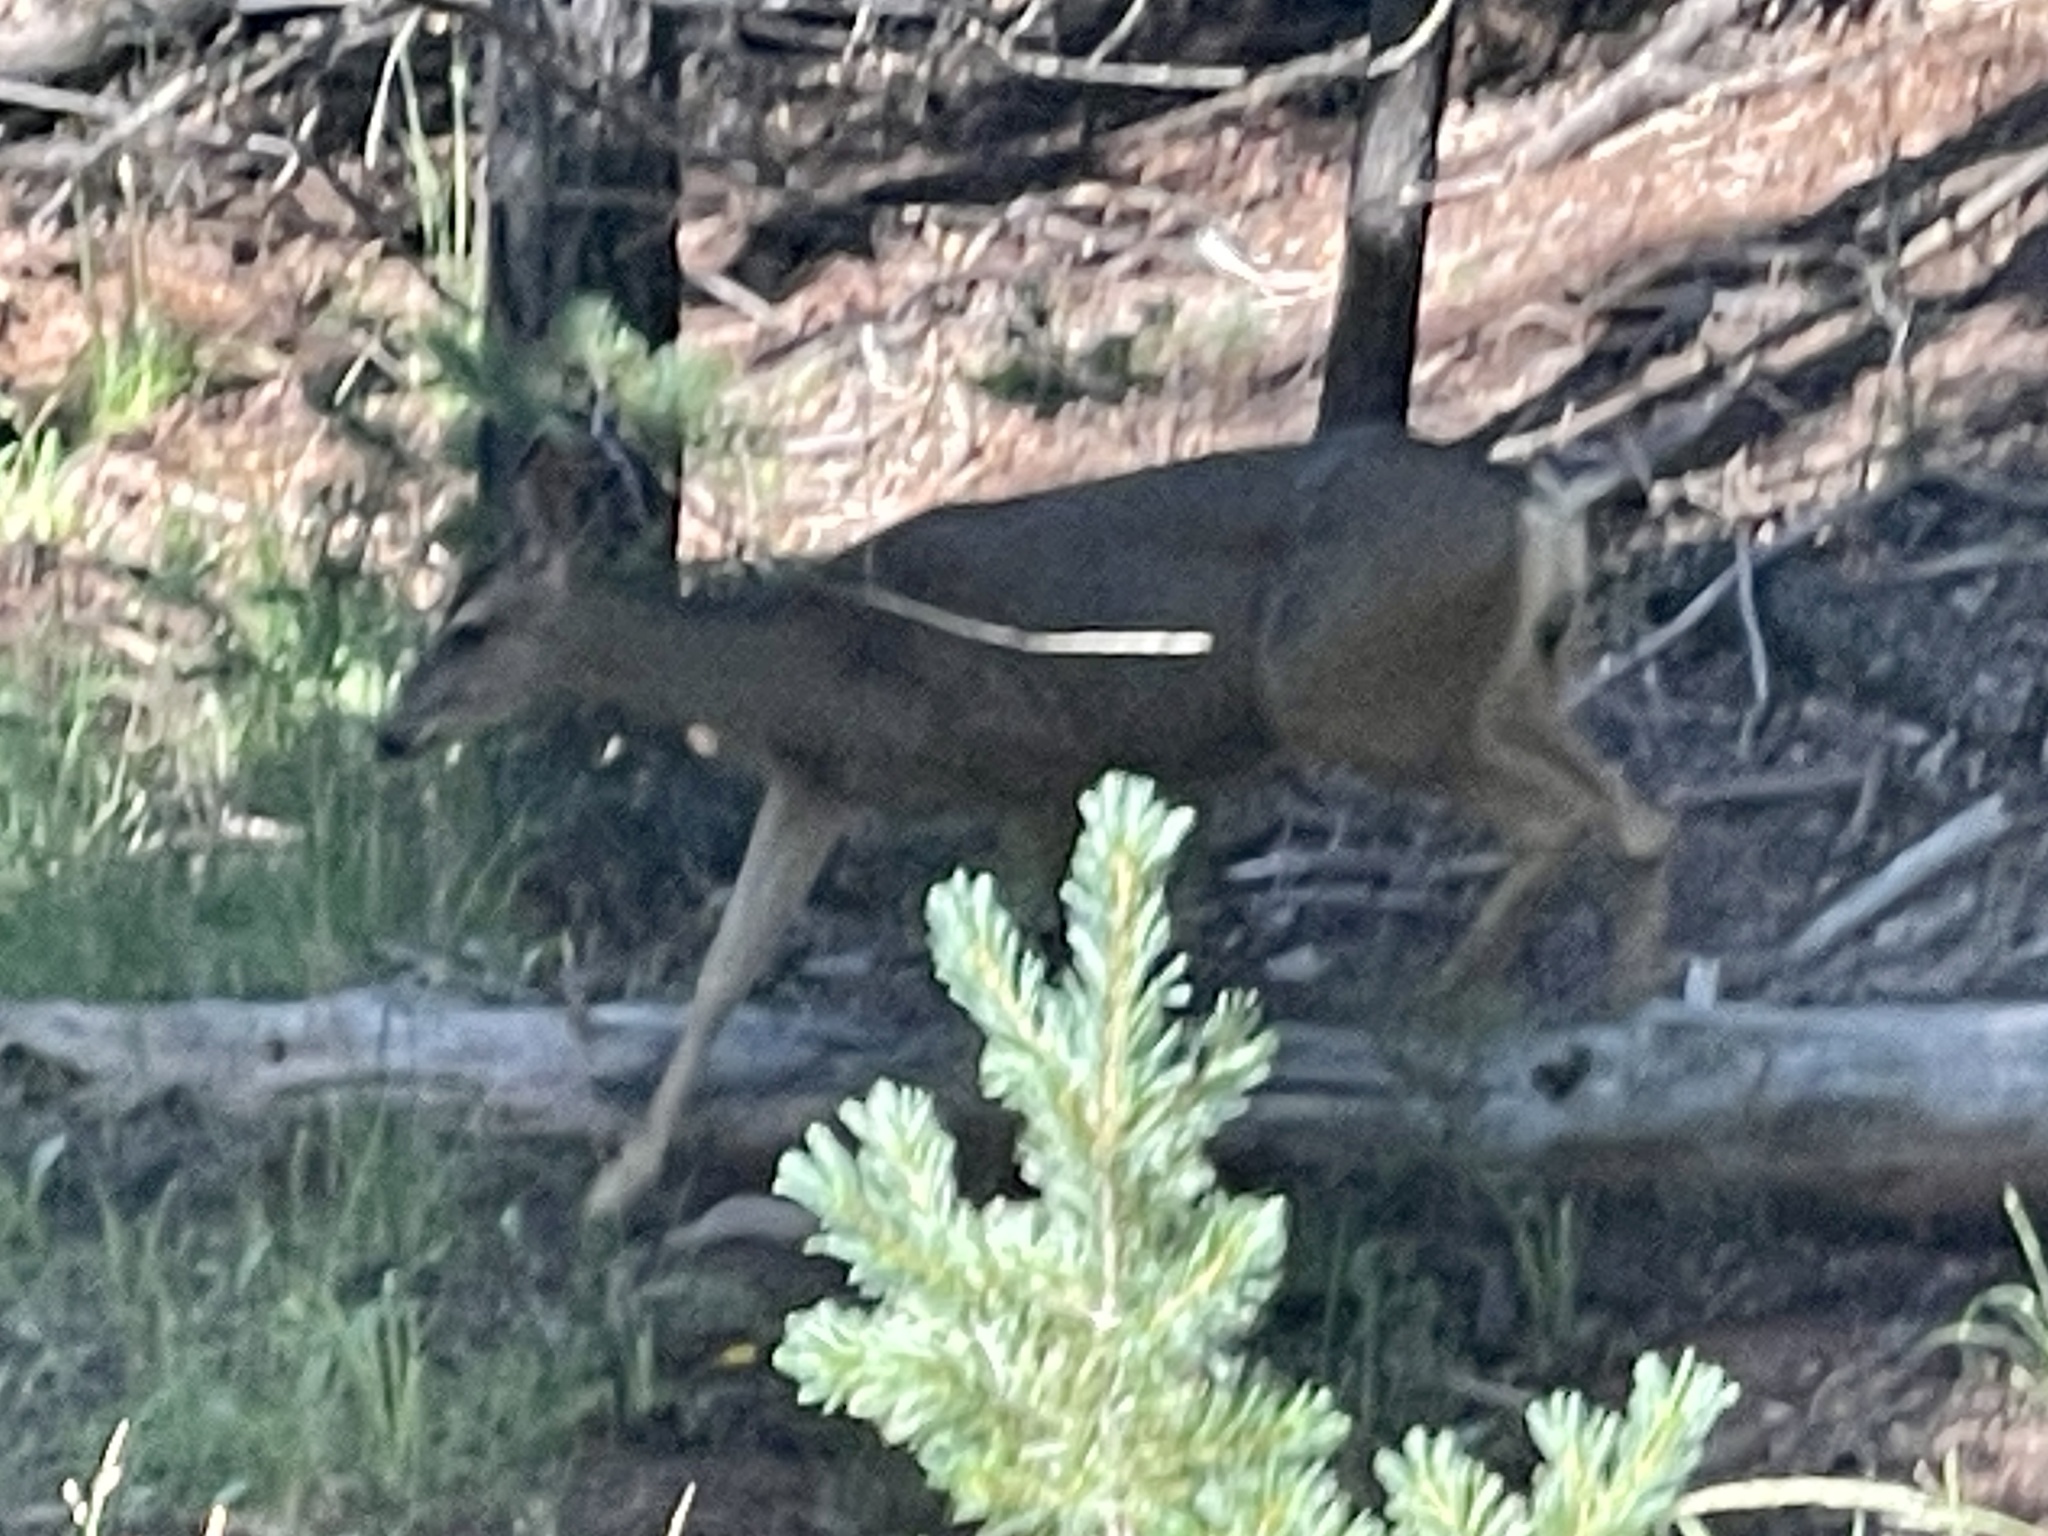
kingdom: Animalia
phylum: Chordata
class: Mammalia
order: Artiodactyla
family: Cervidae
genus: Odocoileus
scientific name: Odocoileus hemionus
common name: Mule deer
